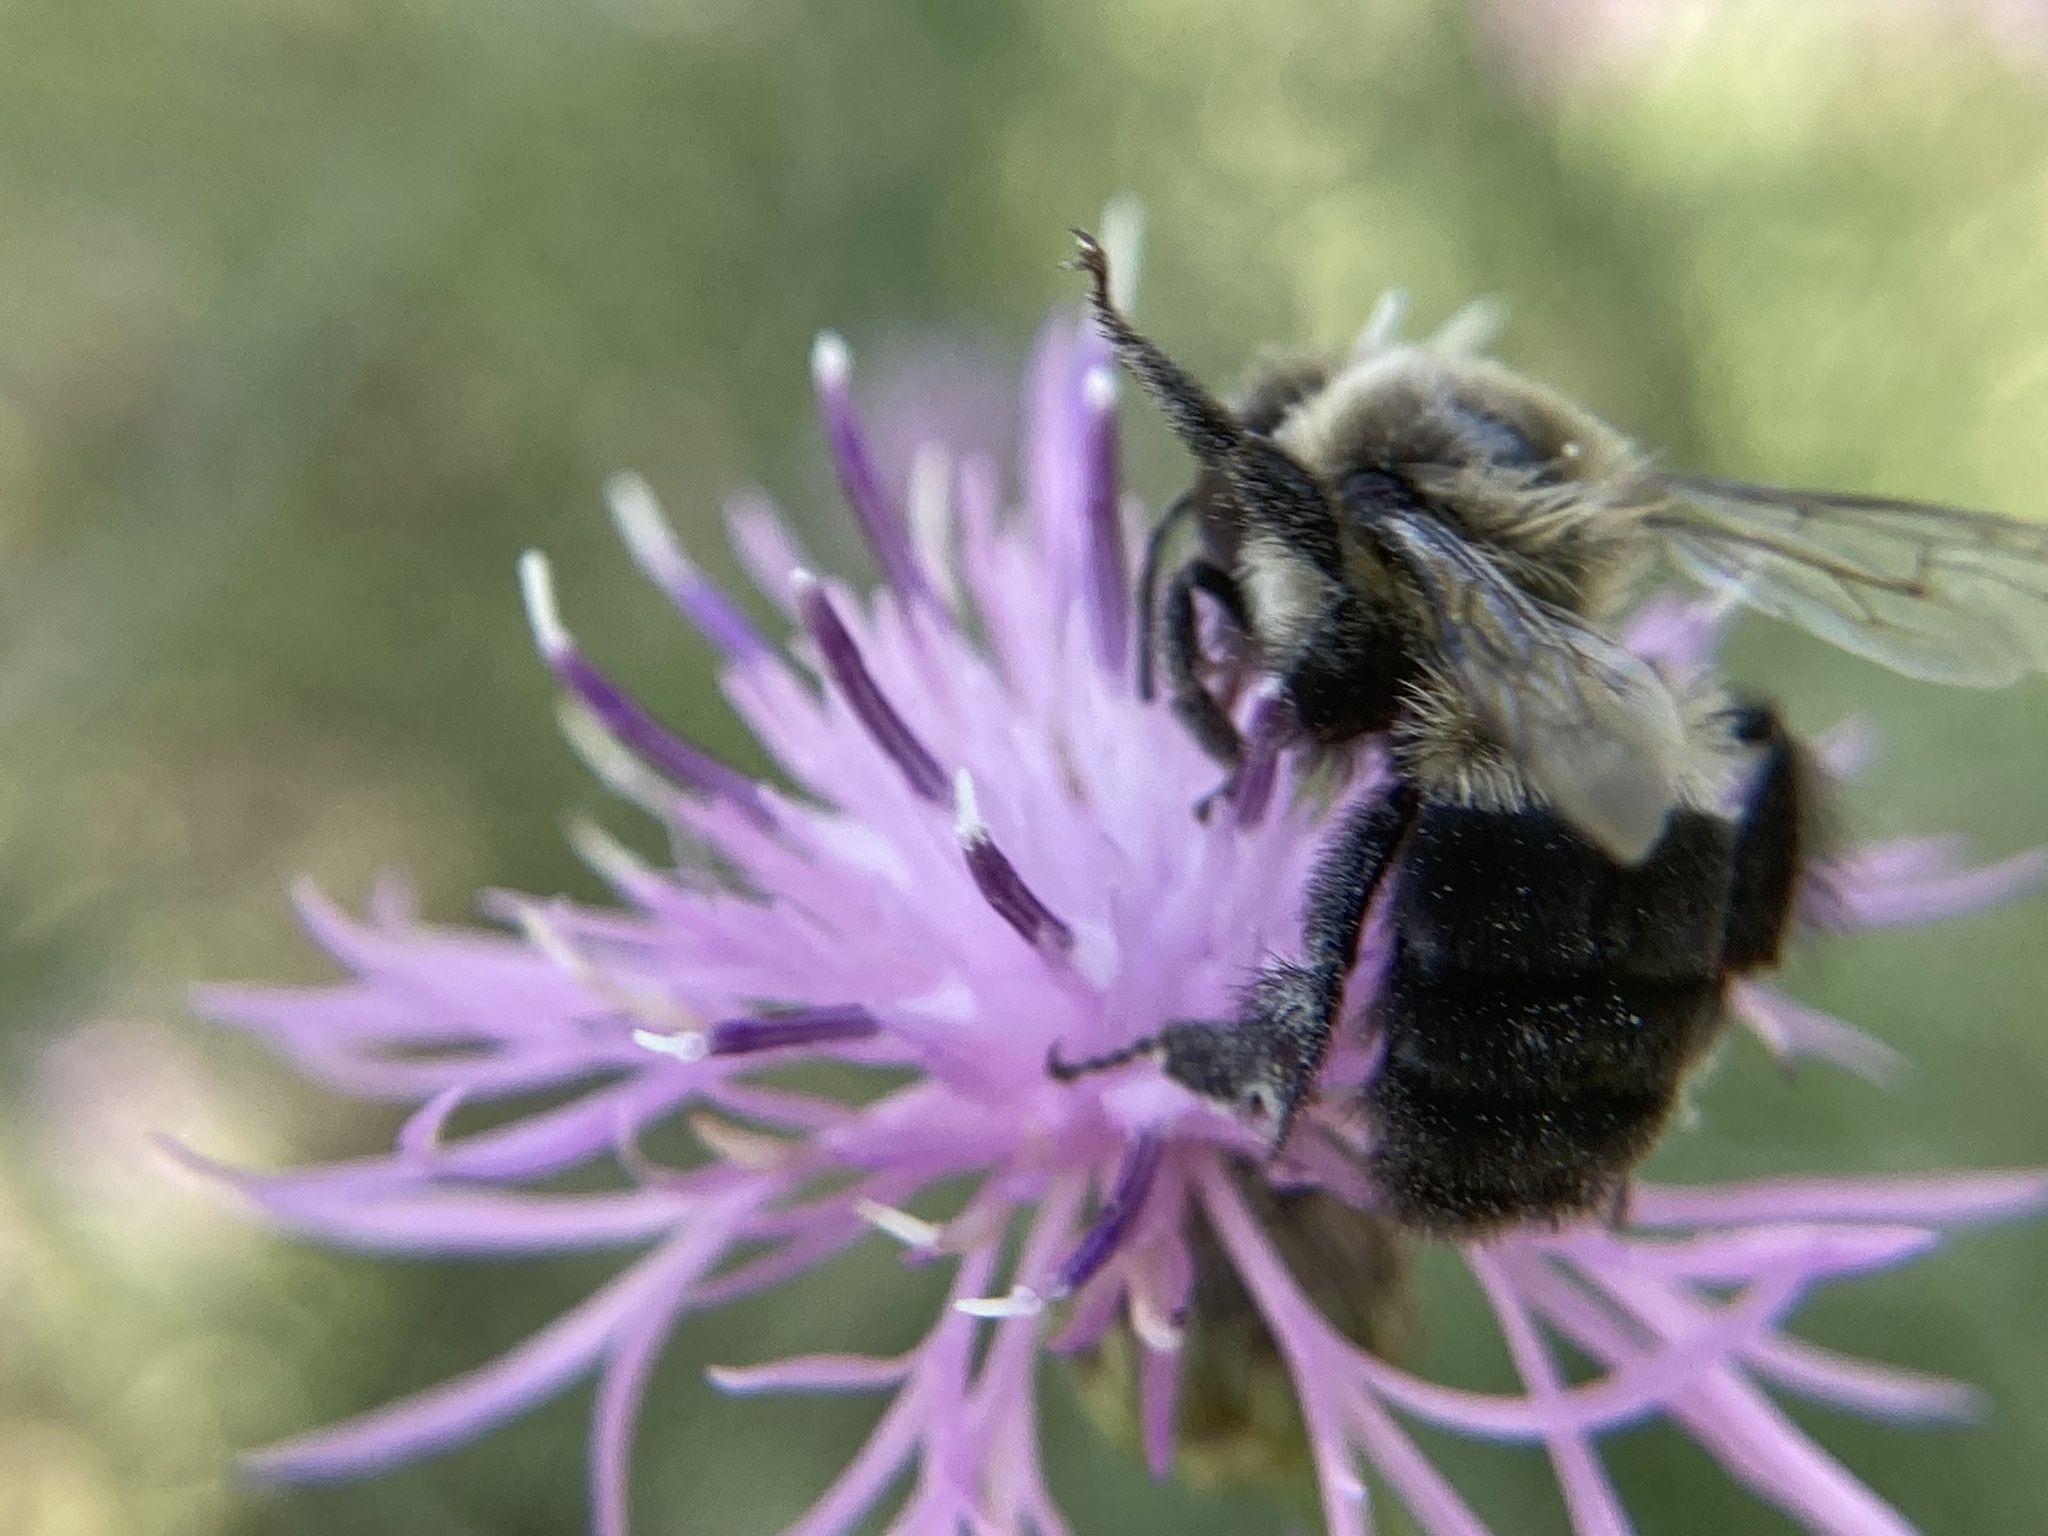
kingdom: Animalia
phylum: Arthropoda
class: Insecta
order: Hymenoptera
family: Apidae
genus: Bombus
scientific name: Bombus impatiens
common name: Common eastern bumble bee
